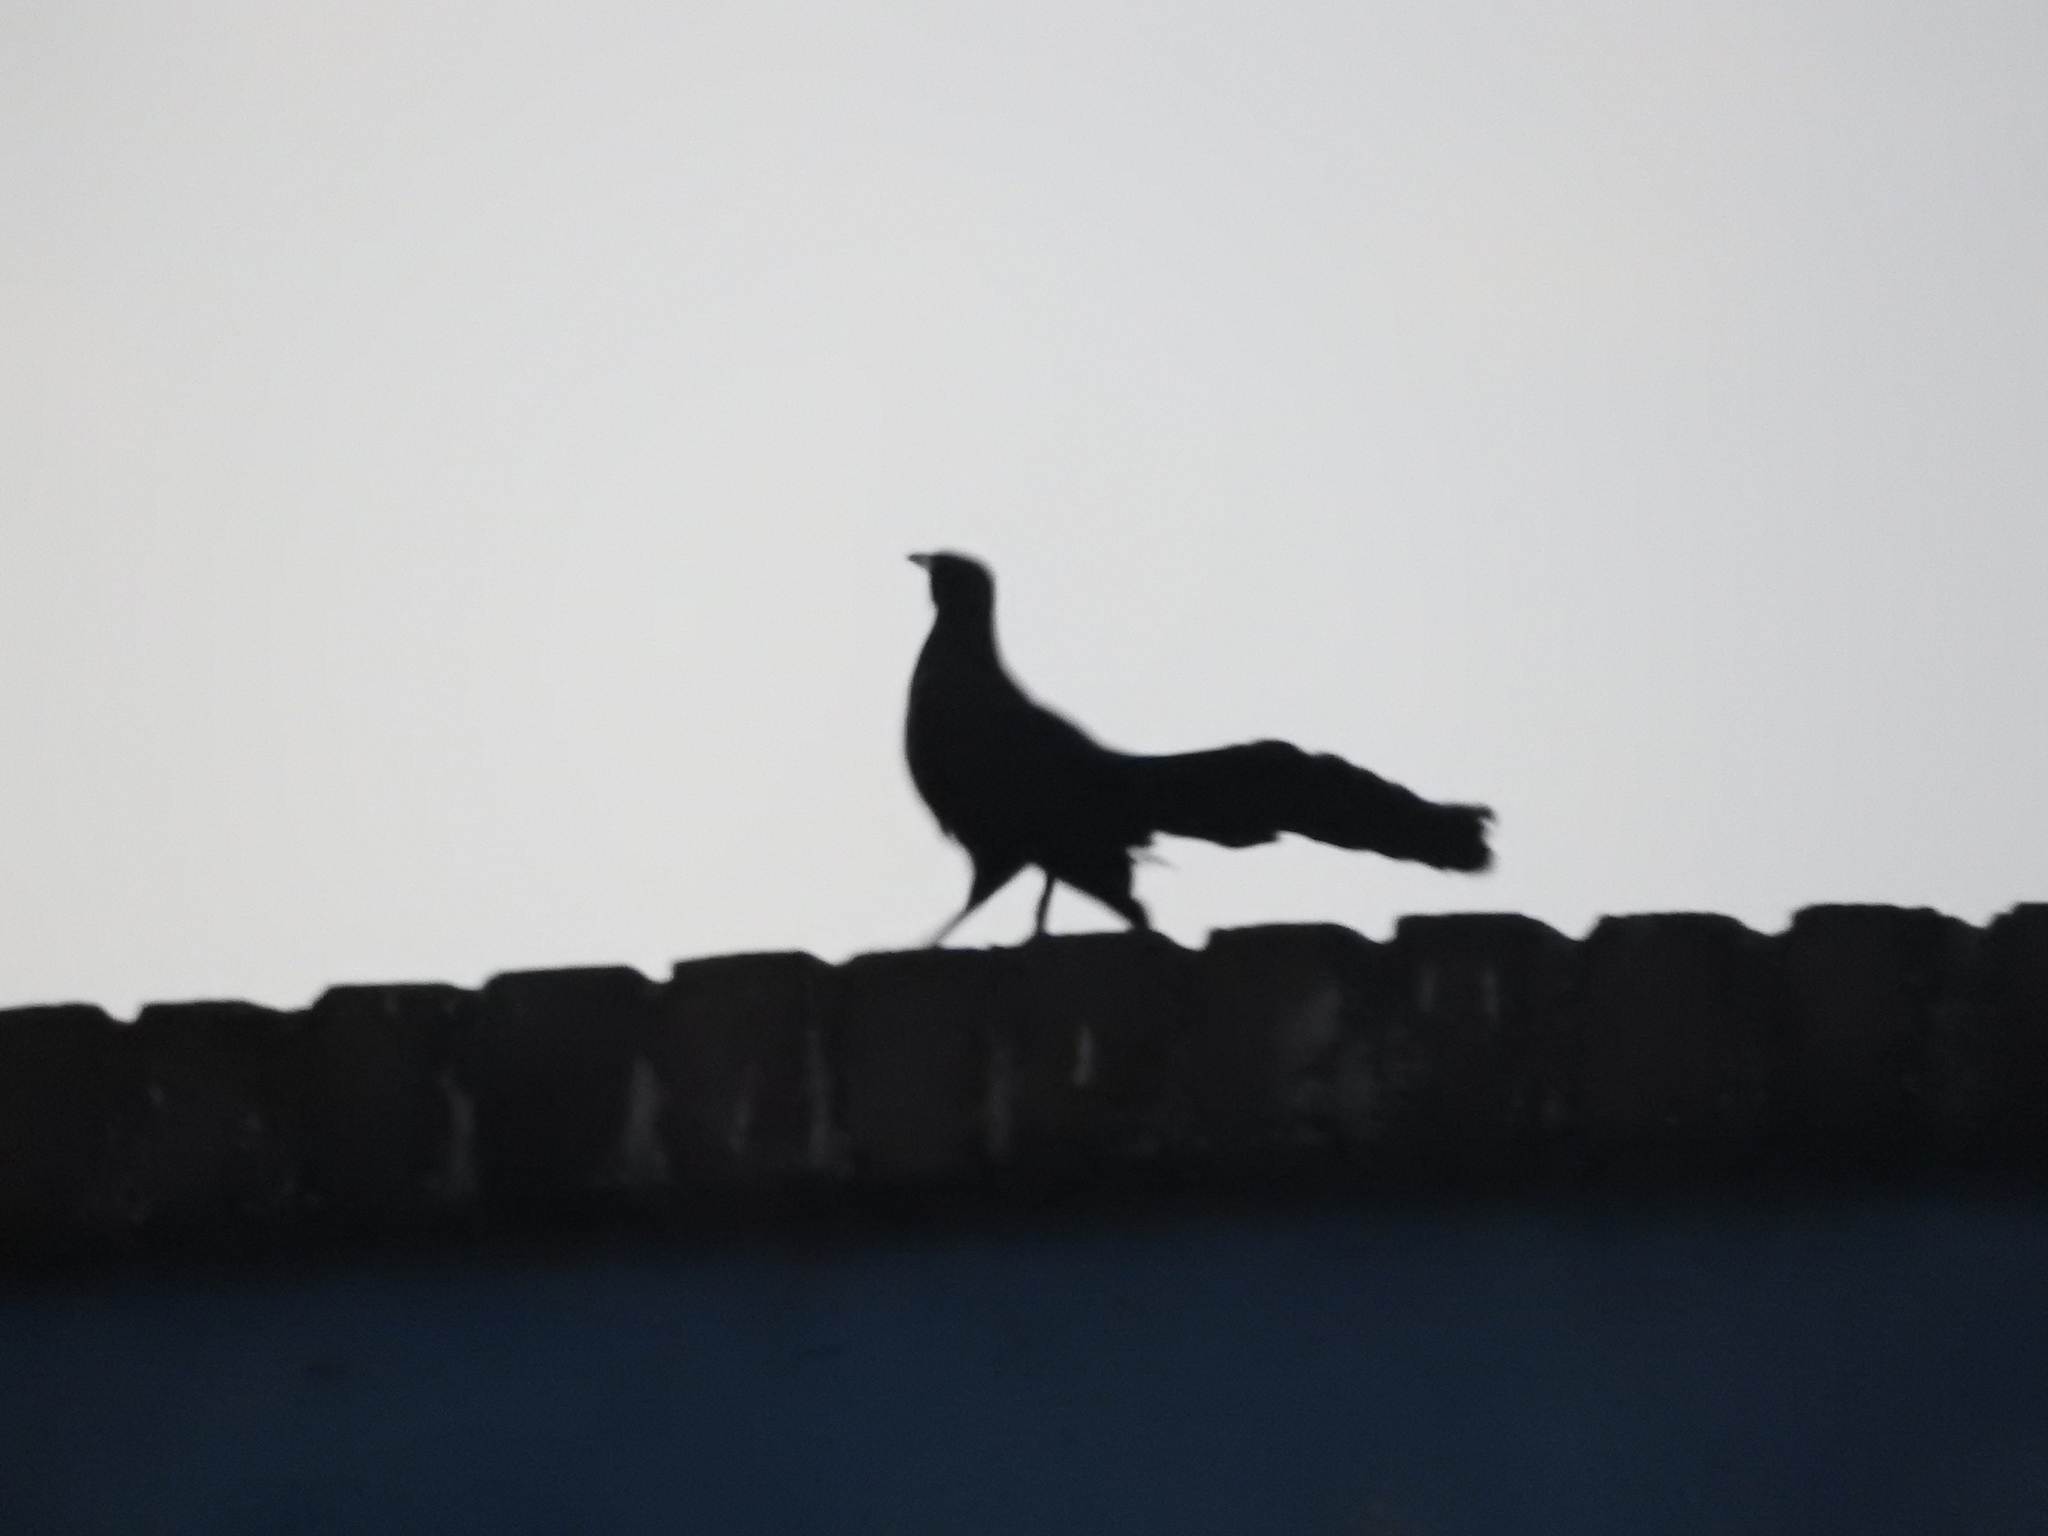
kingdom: Animalia
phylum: Chordata
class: Aves
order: Passeriformes
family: Icteridae
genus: Quiscalus
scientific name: Quiscalus mexicanus
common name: Great-tailed grackle
